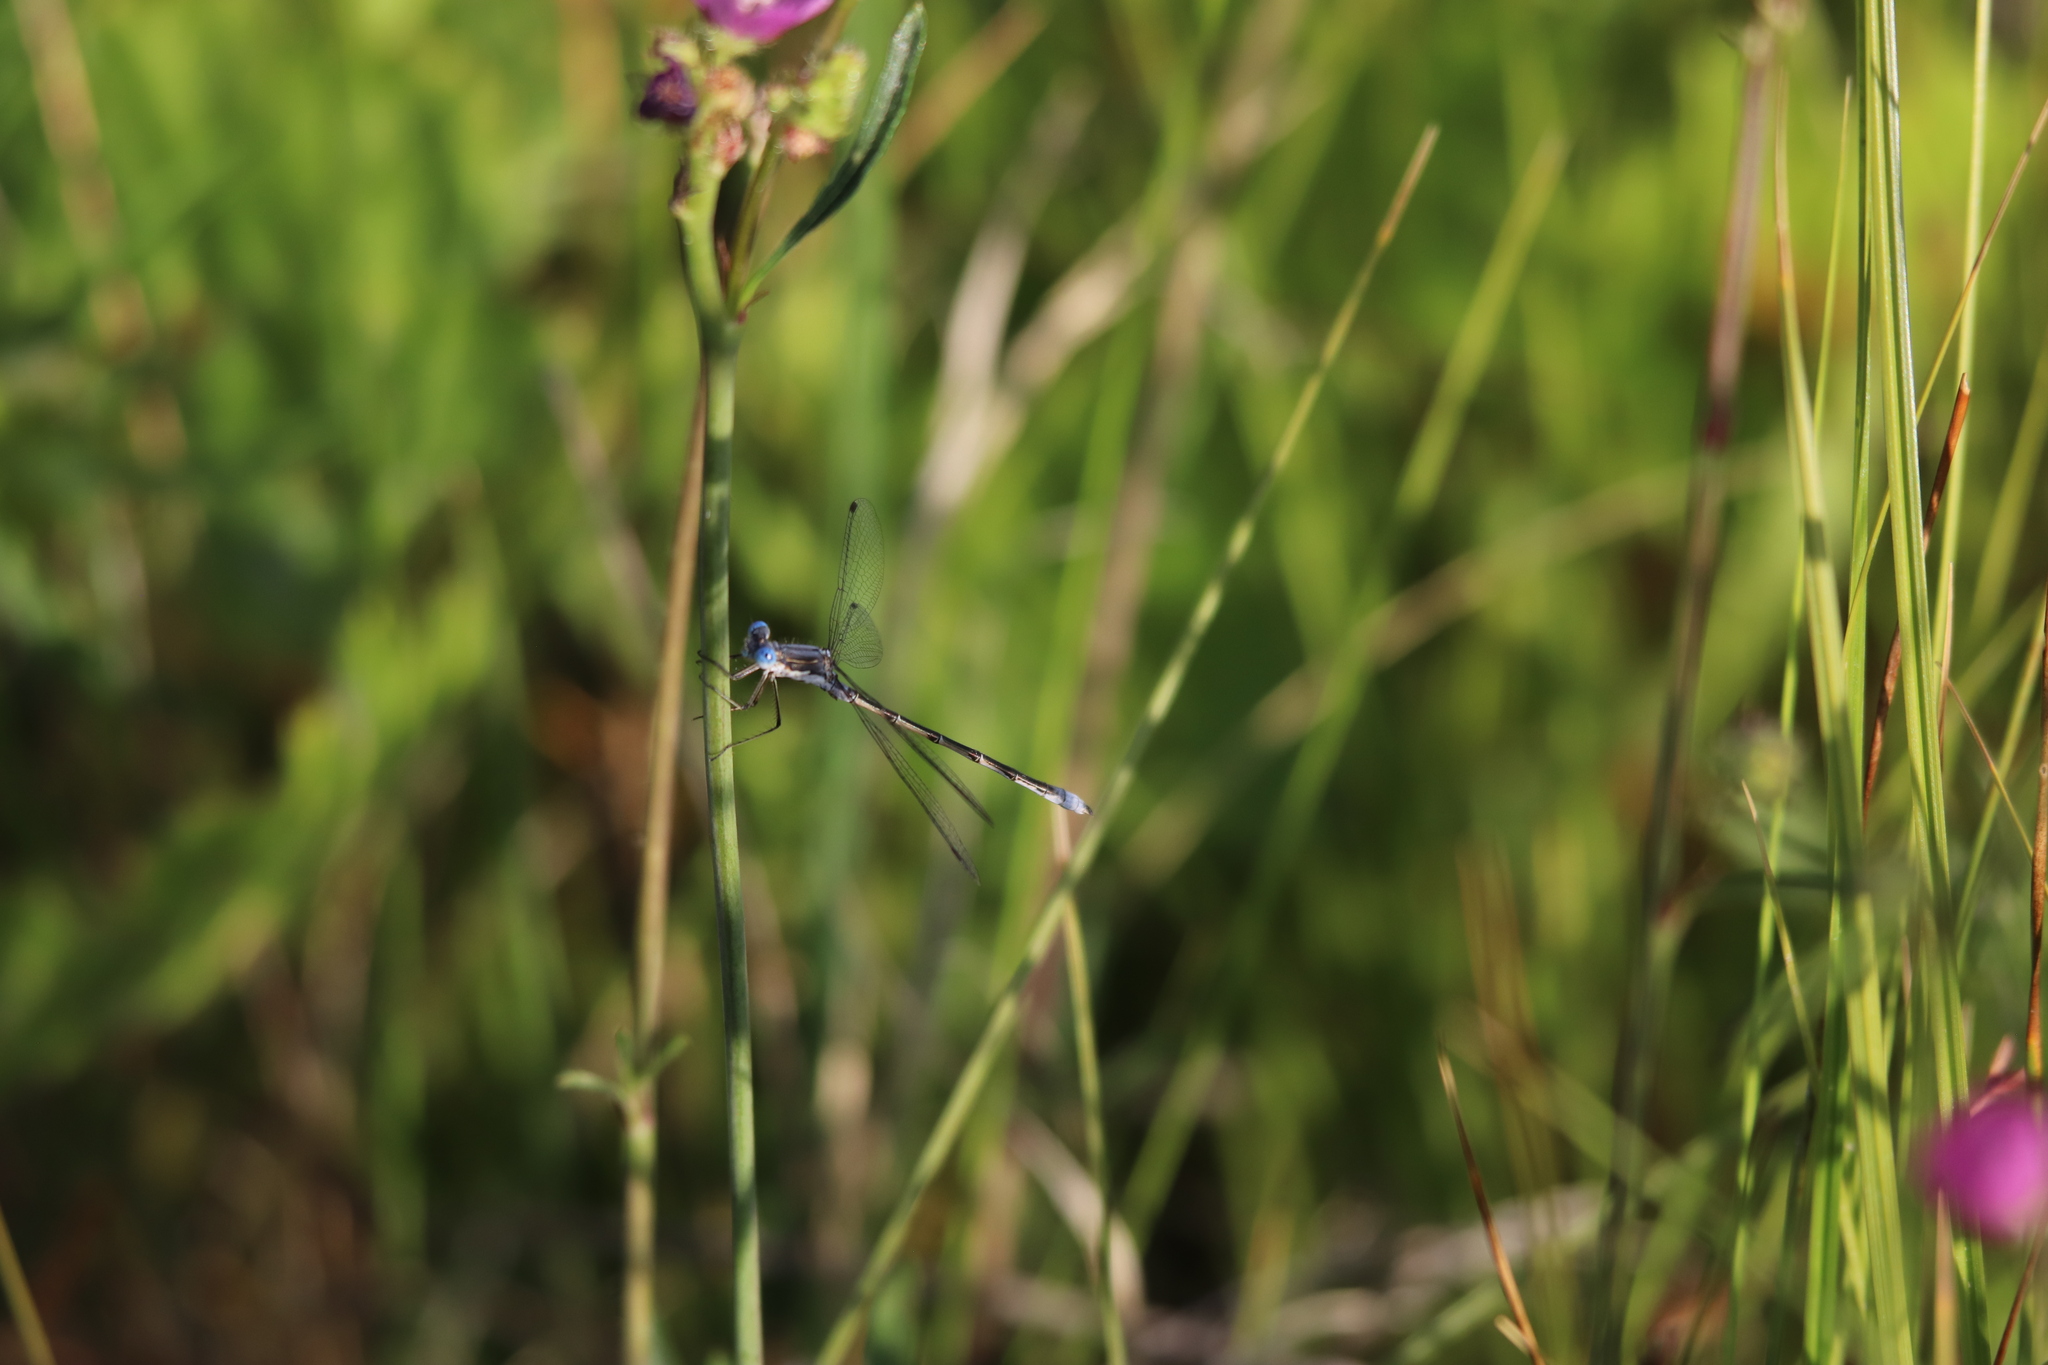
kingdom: Animalia
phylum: Arthropoda
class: Insecta
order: Odonata
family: Lestidae
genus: Lestes
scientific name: Lestes congener
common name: Spotted spreadwing
